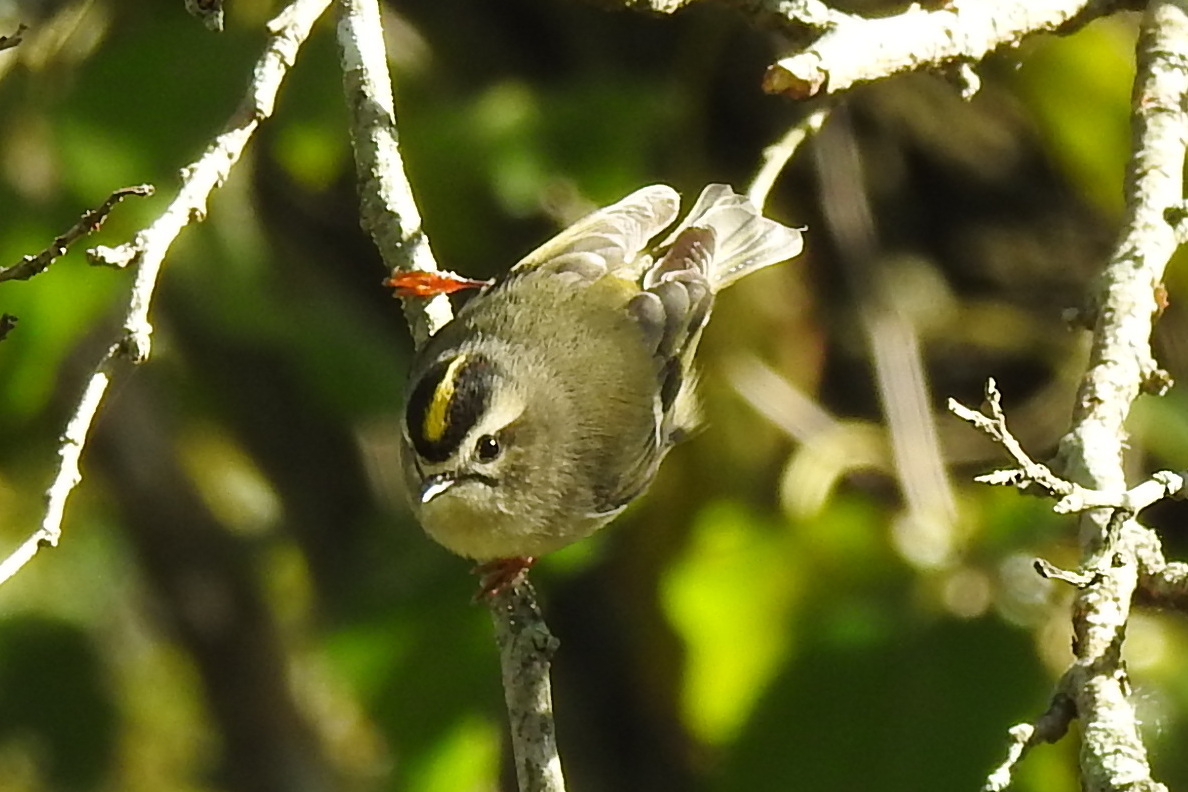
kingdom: Animalia
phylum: Chordata
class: Aves
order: Passeriformes
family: Regulidae
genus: Regulus
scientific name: Regulus satrapa
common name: Golden-crowned kinglet
